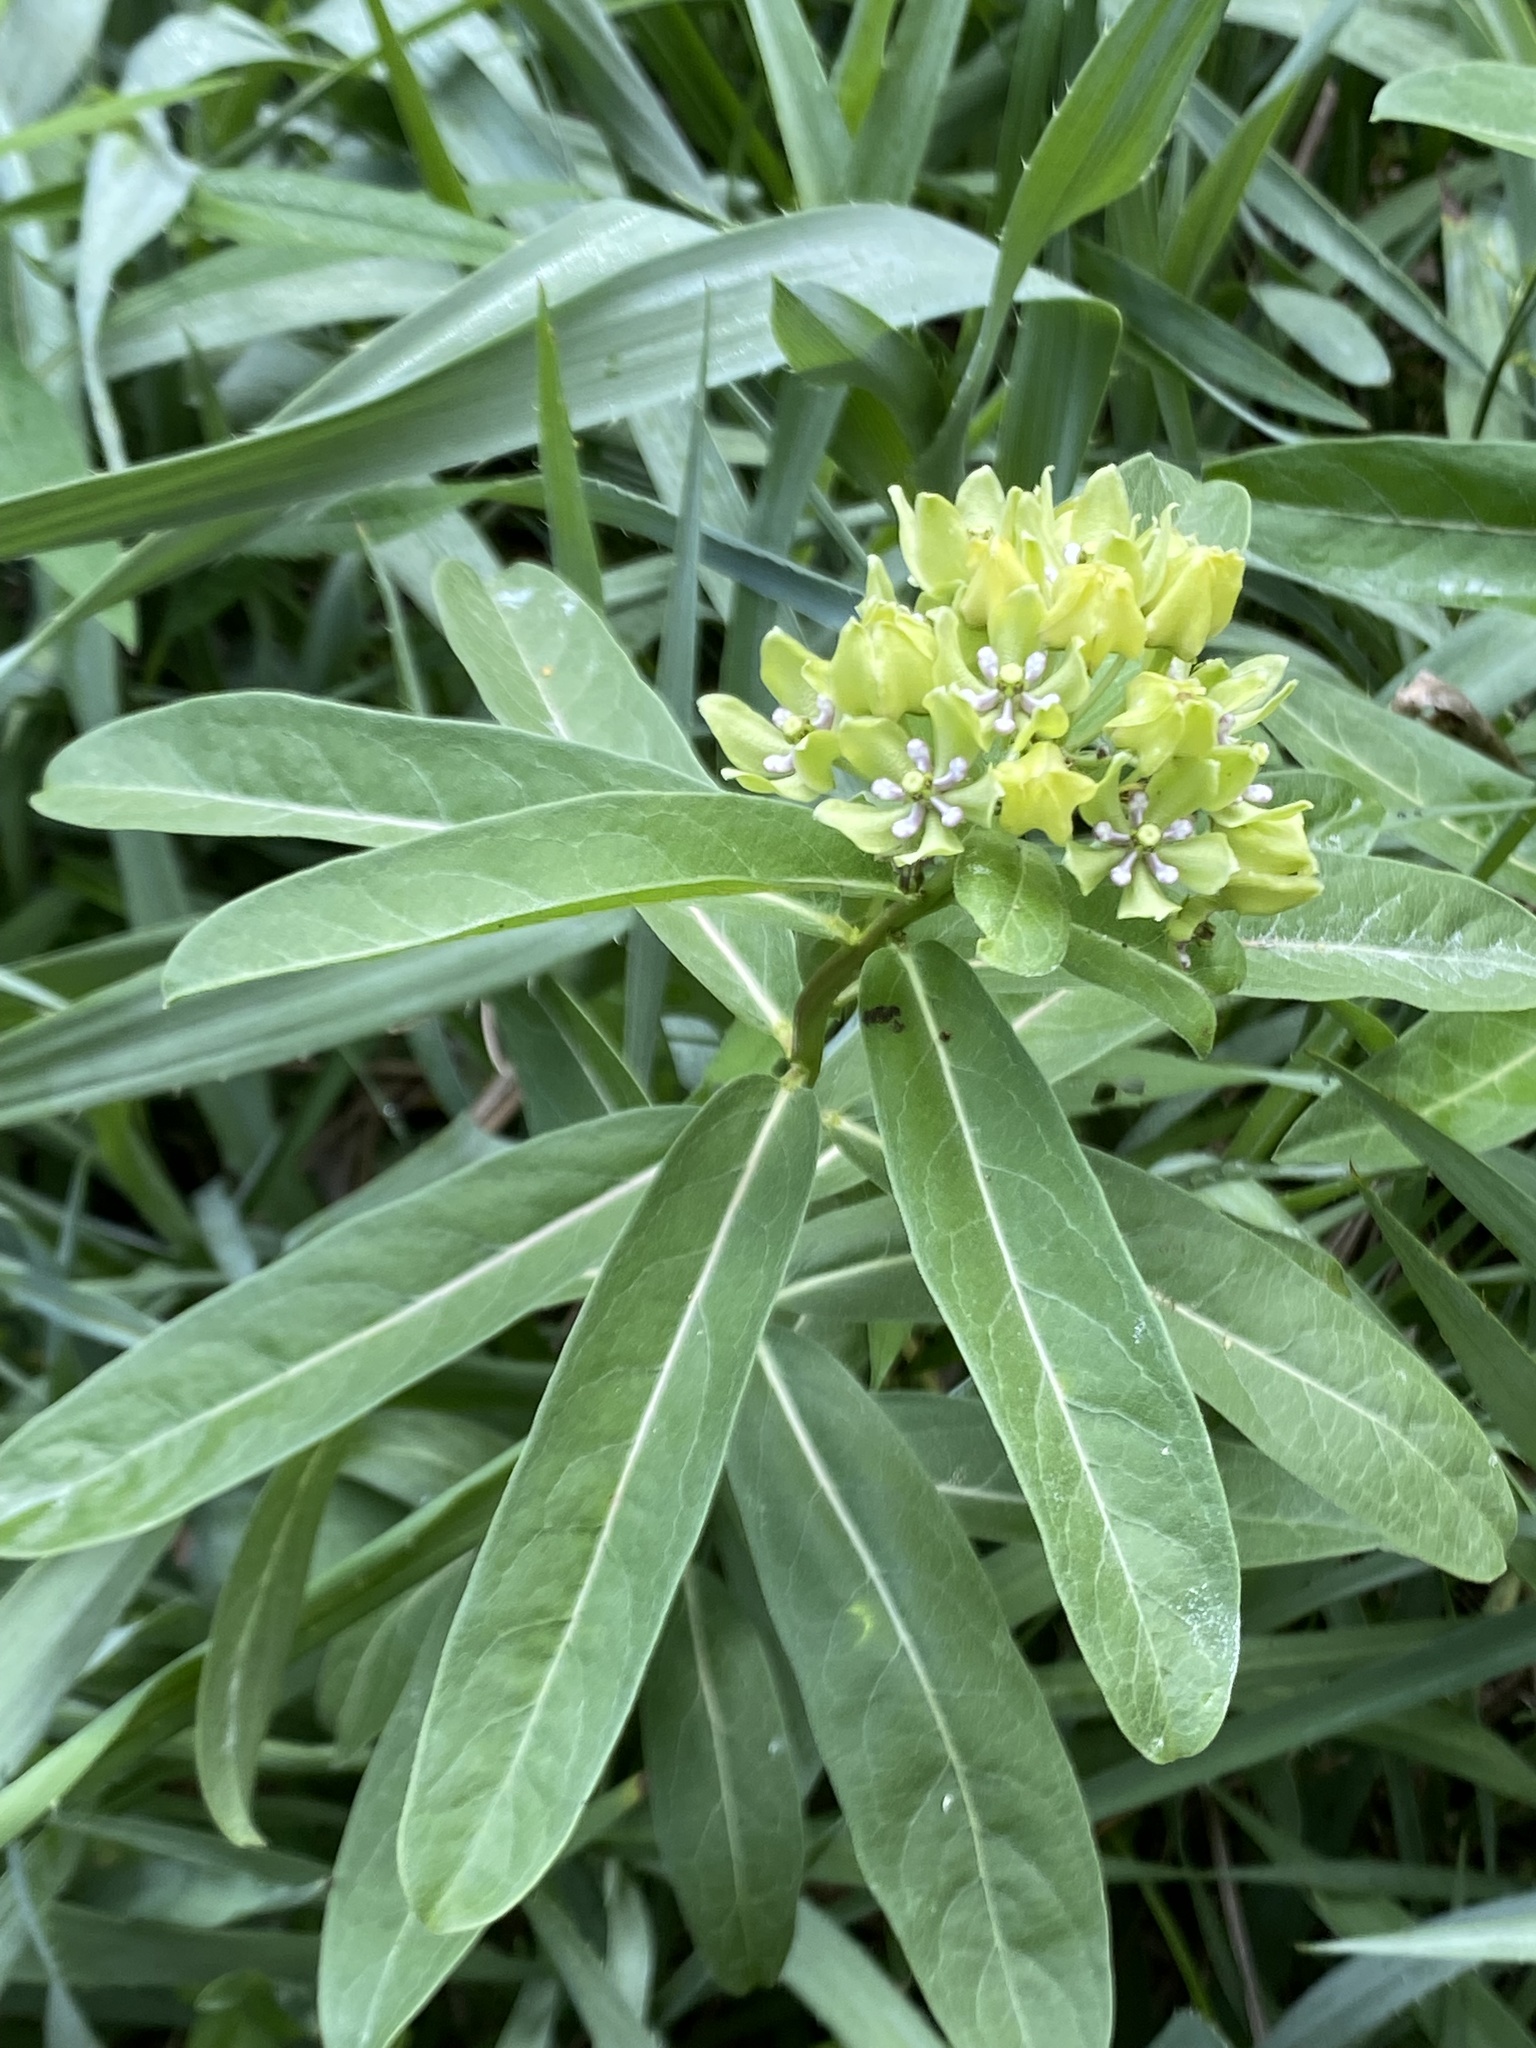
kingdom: Plantae
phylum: Tracheophyta
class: Magnoliopsida
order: Gentianales
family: Apocynaceae
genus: Asclepias
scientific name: Asclepias viridis
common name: Antelope-horns
